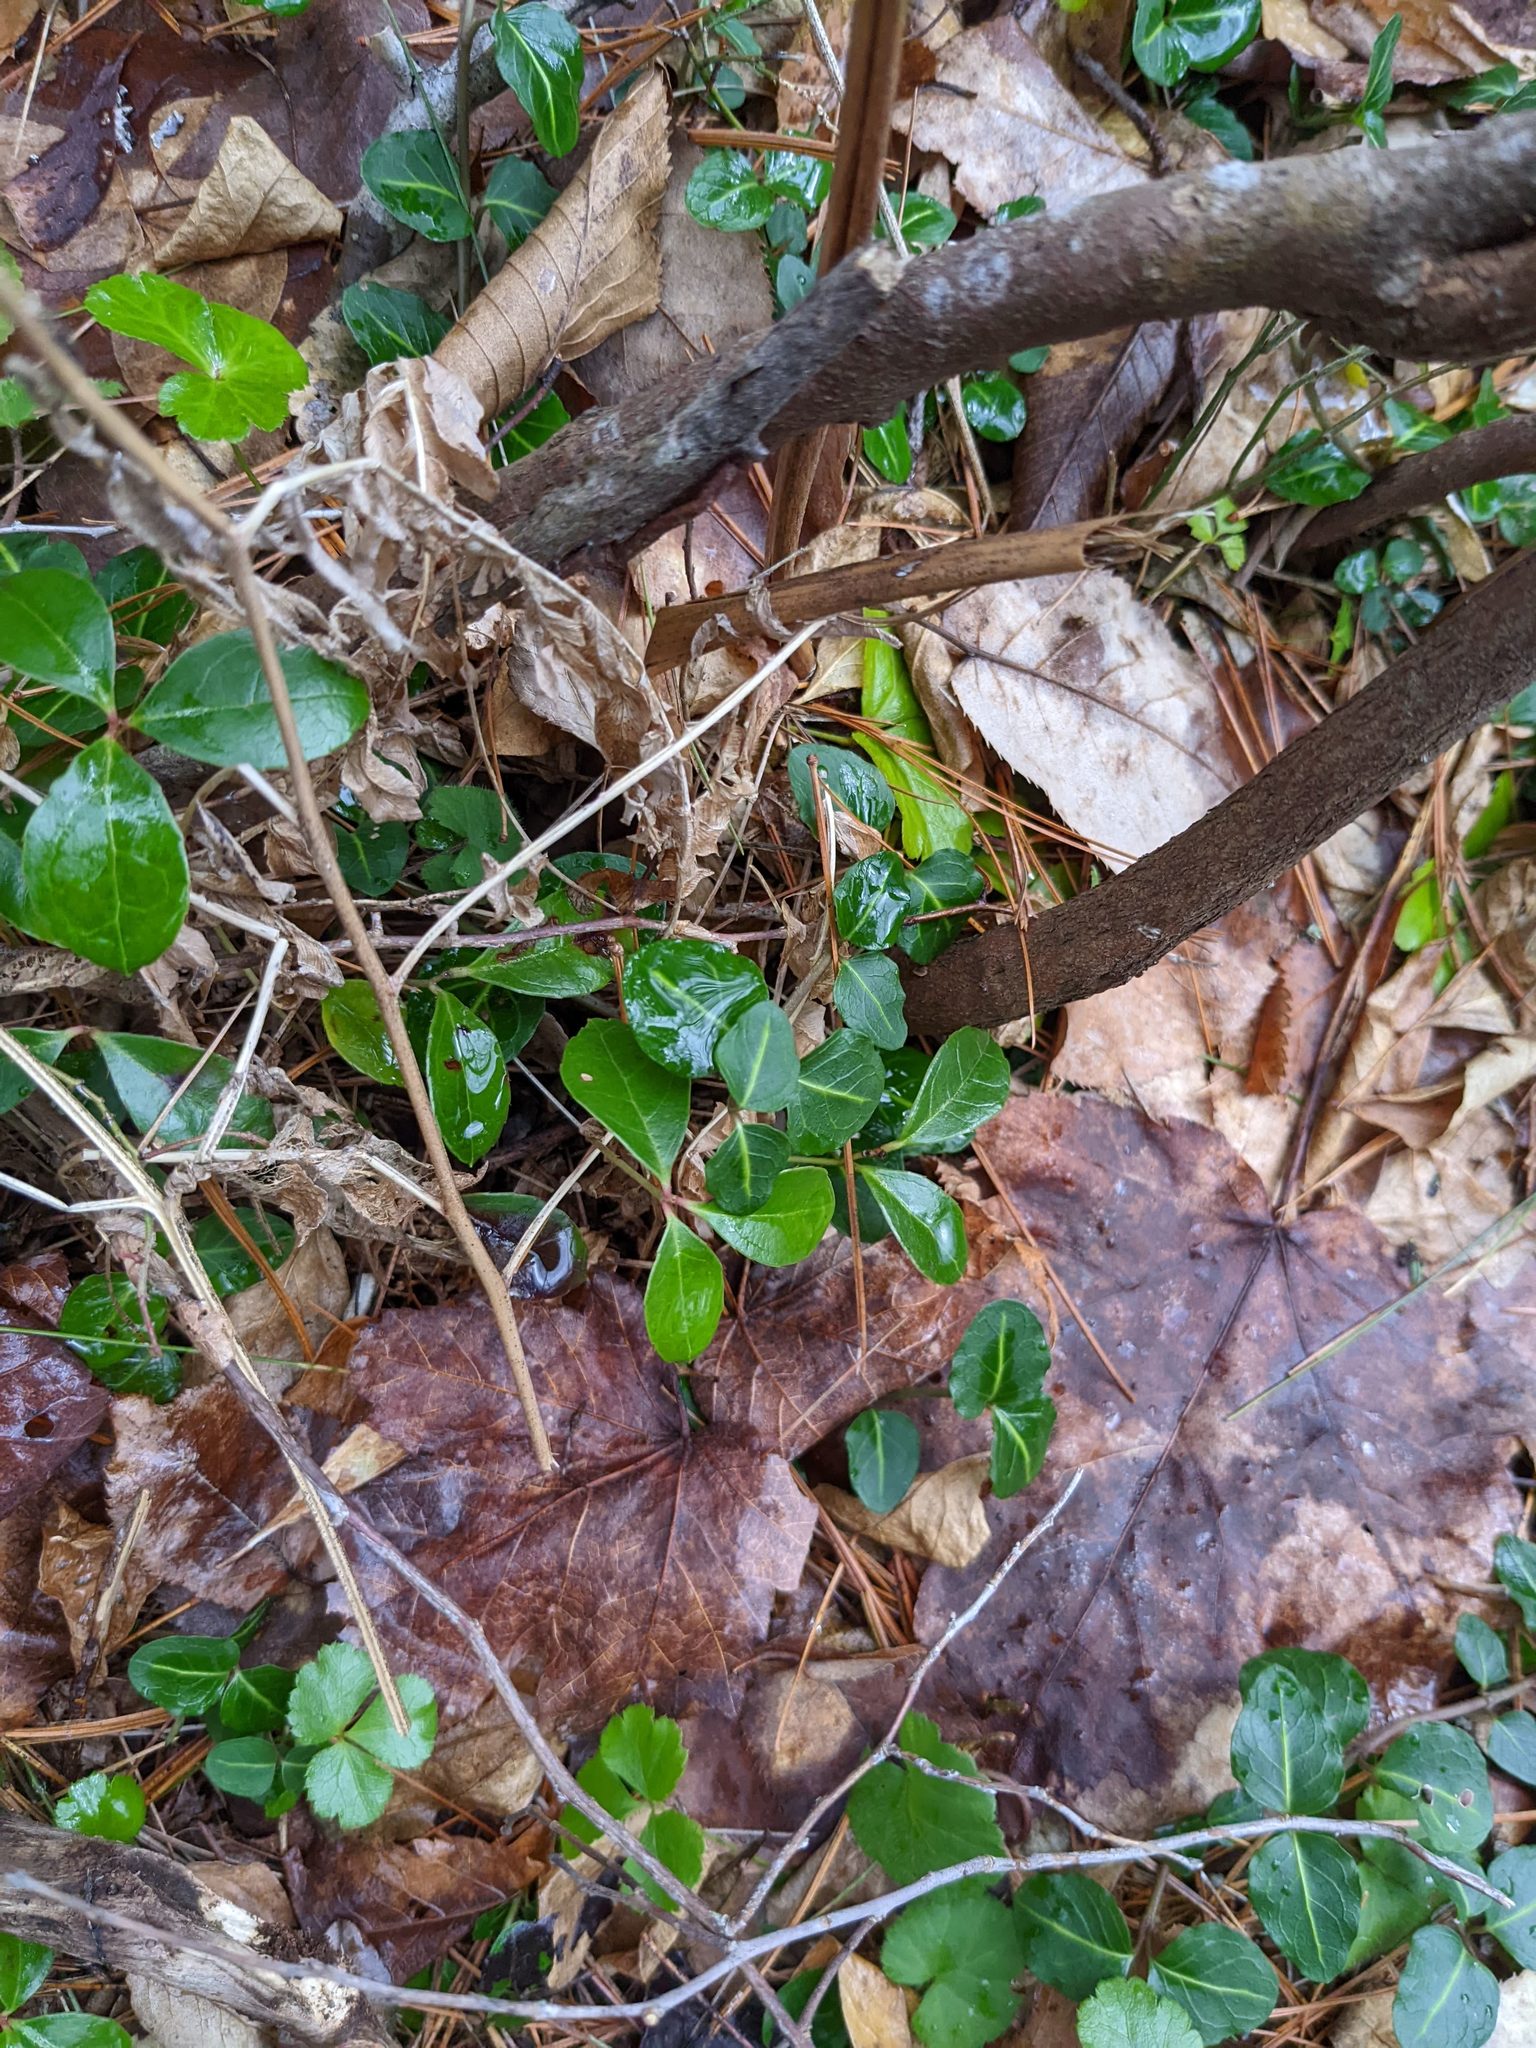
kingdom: Plantae
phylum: Tracheophyta
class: Magnoliopsida
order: Gentianales
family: Rubiaceae
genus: Mitchella
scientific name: Mitchella repens
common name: Partridge-berry
